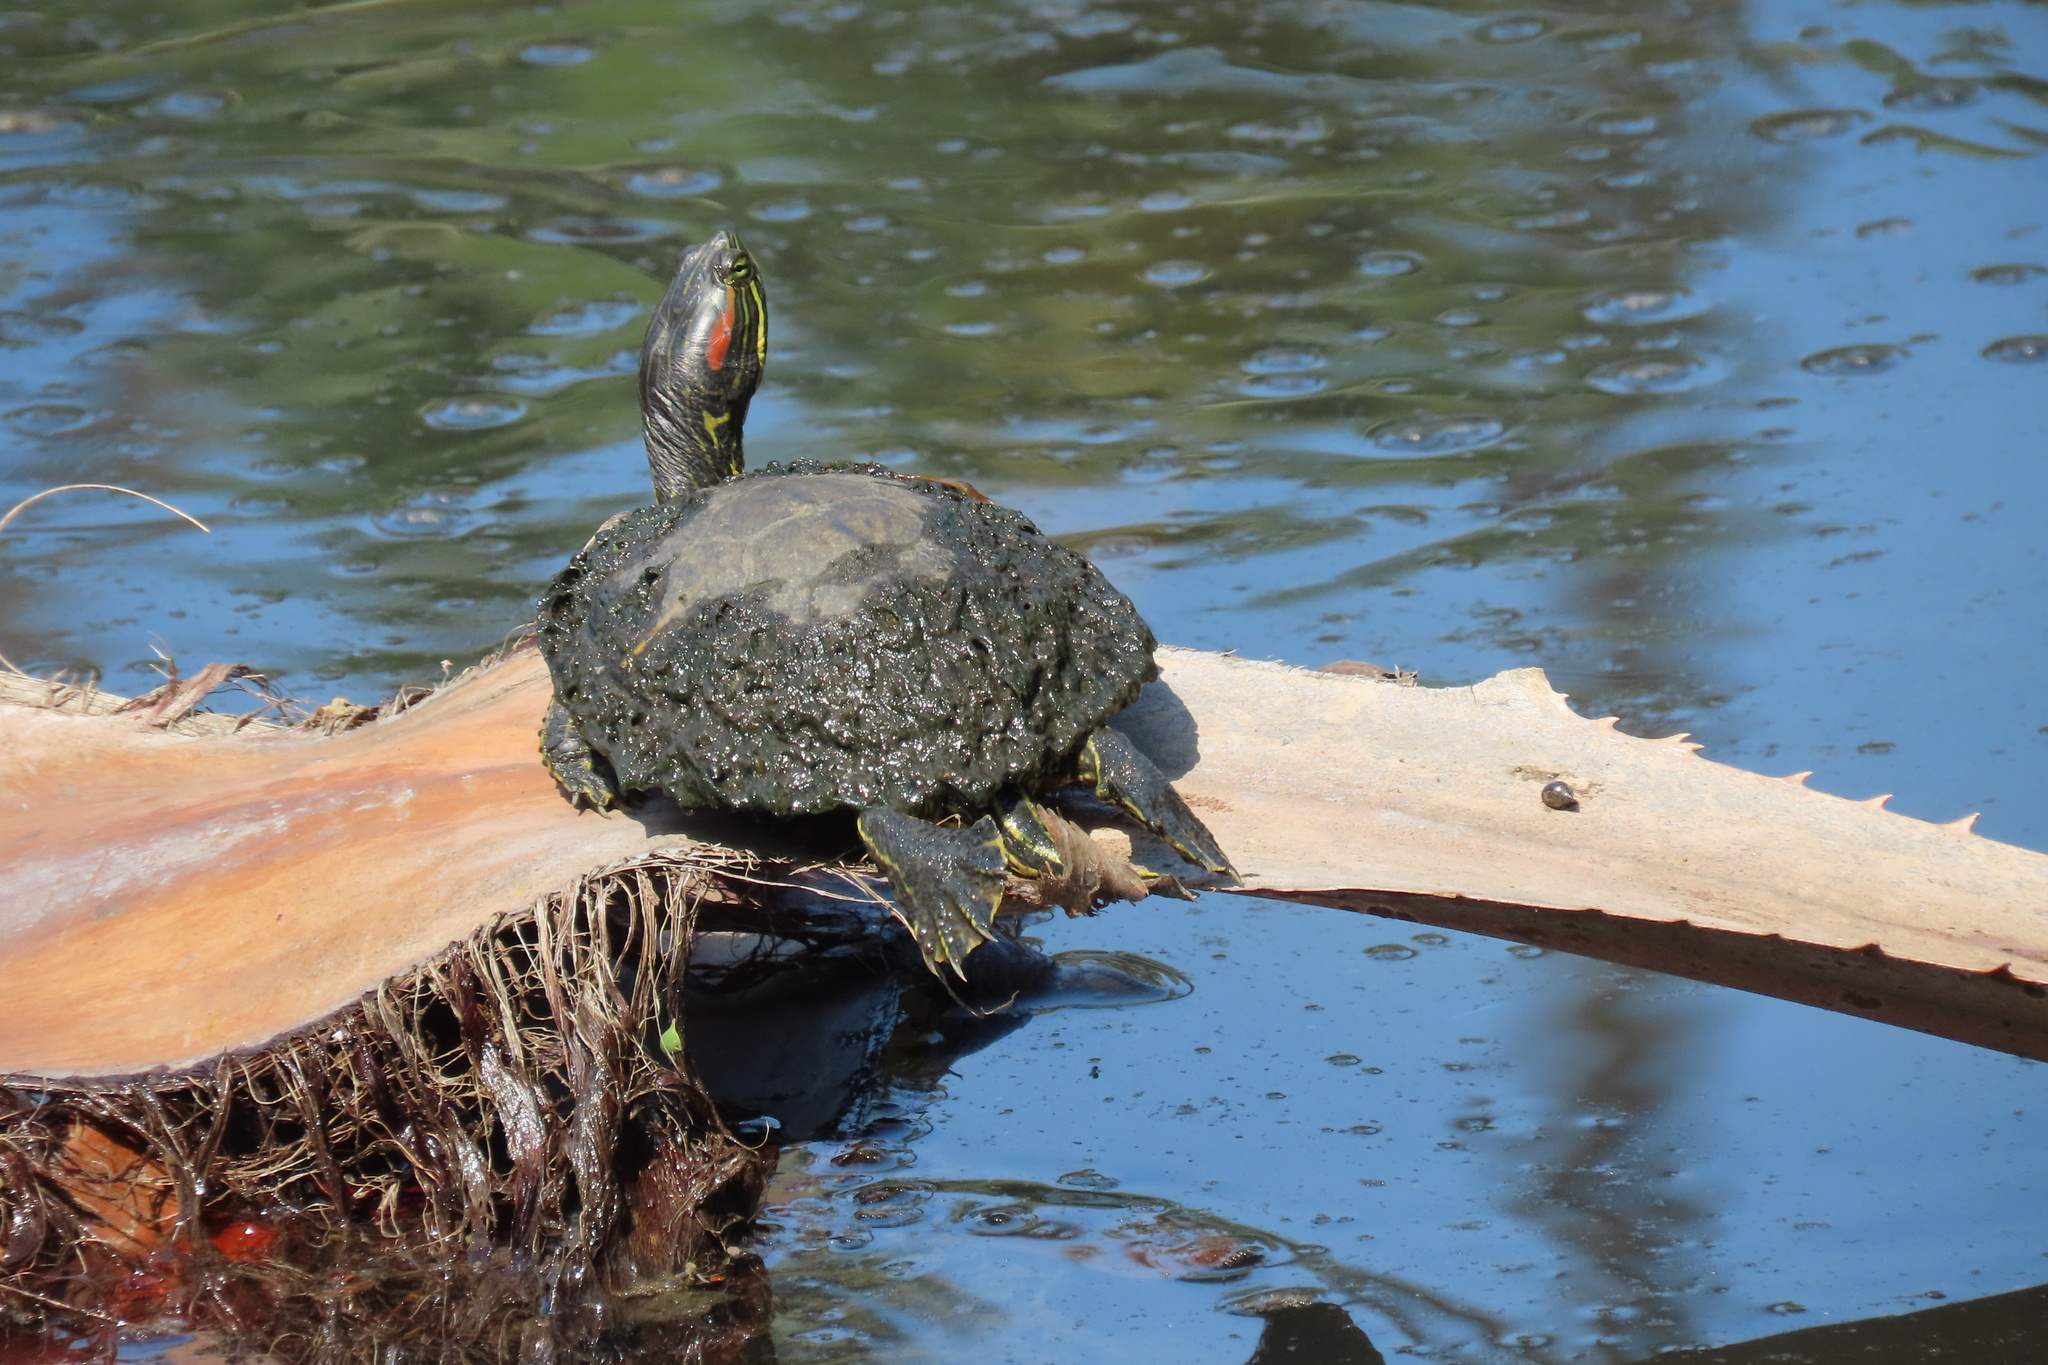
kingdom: Animalia
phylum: Chordata
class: Testudines
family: Emydidae
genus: Trachemys
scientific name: Trachemys scripta
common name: Slider
